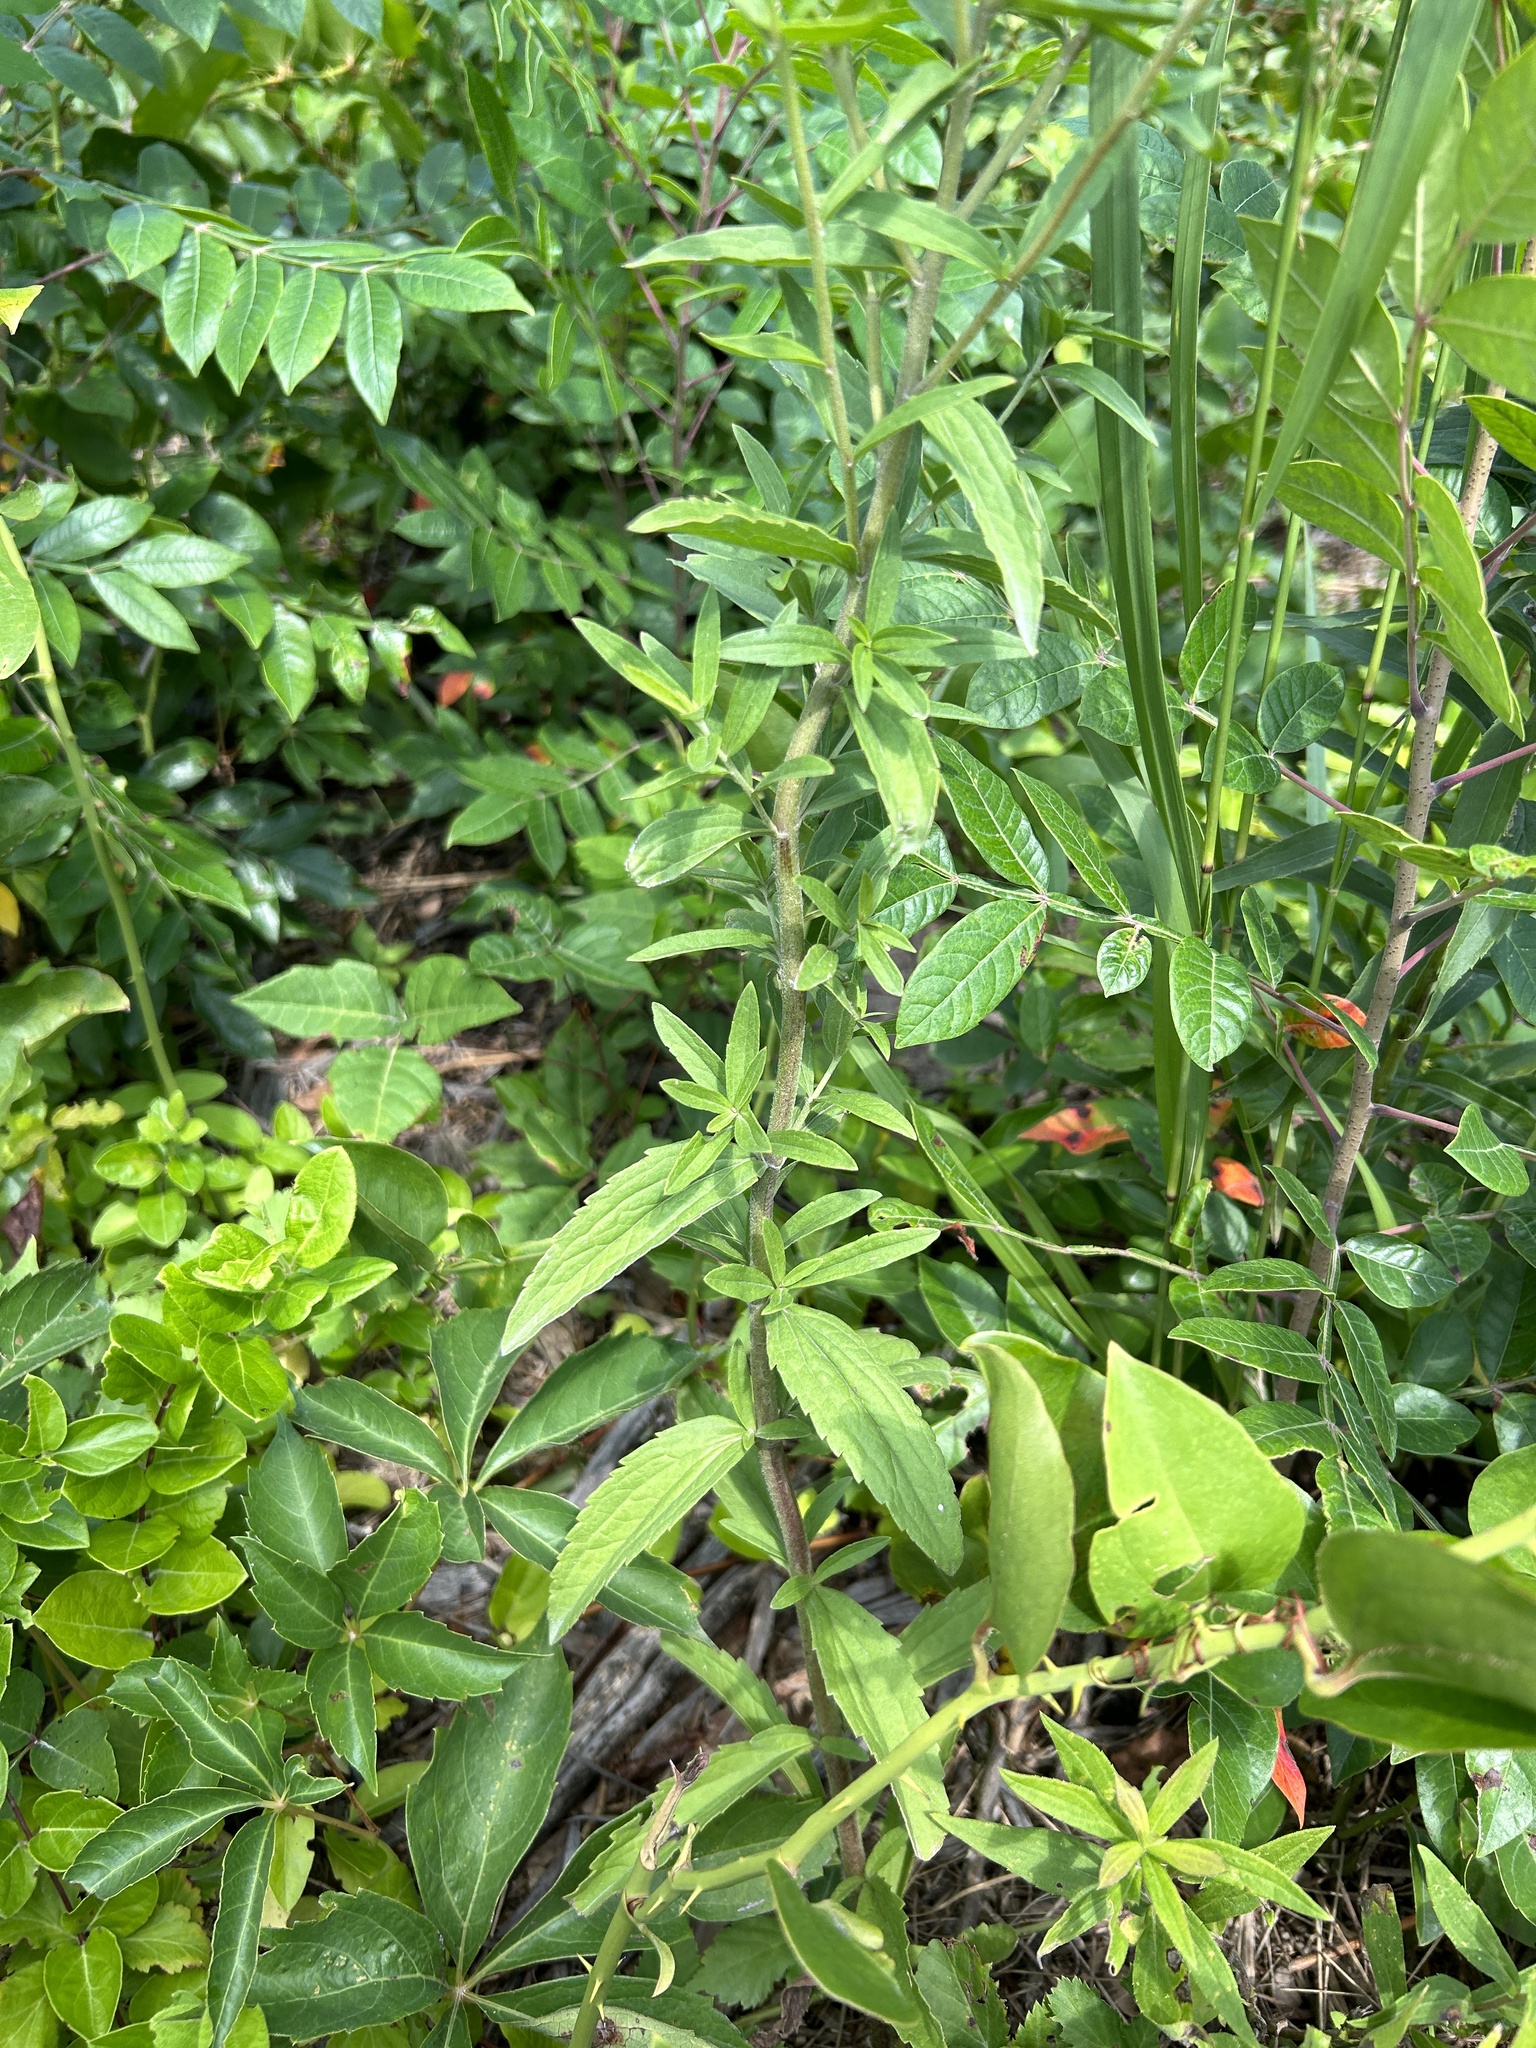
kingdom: Plantae
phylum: Tracheophyta
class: Magnoliopsida
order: Asterales
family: Asteraceae
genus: Eupatorium
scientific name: Eupatorium subvenosum
